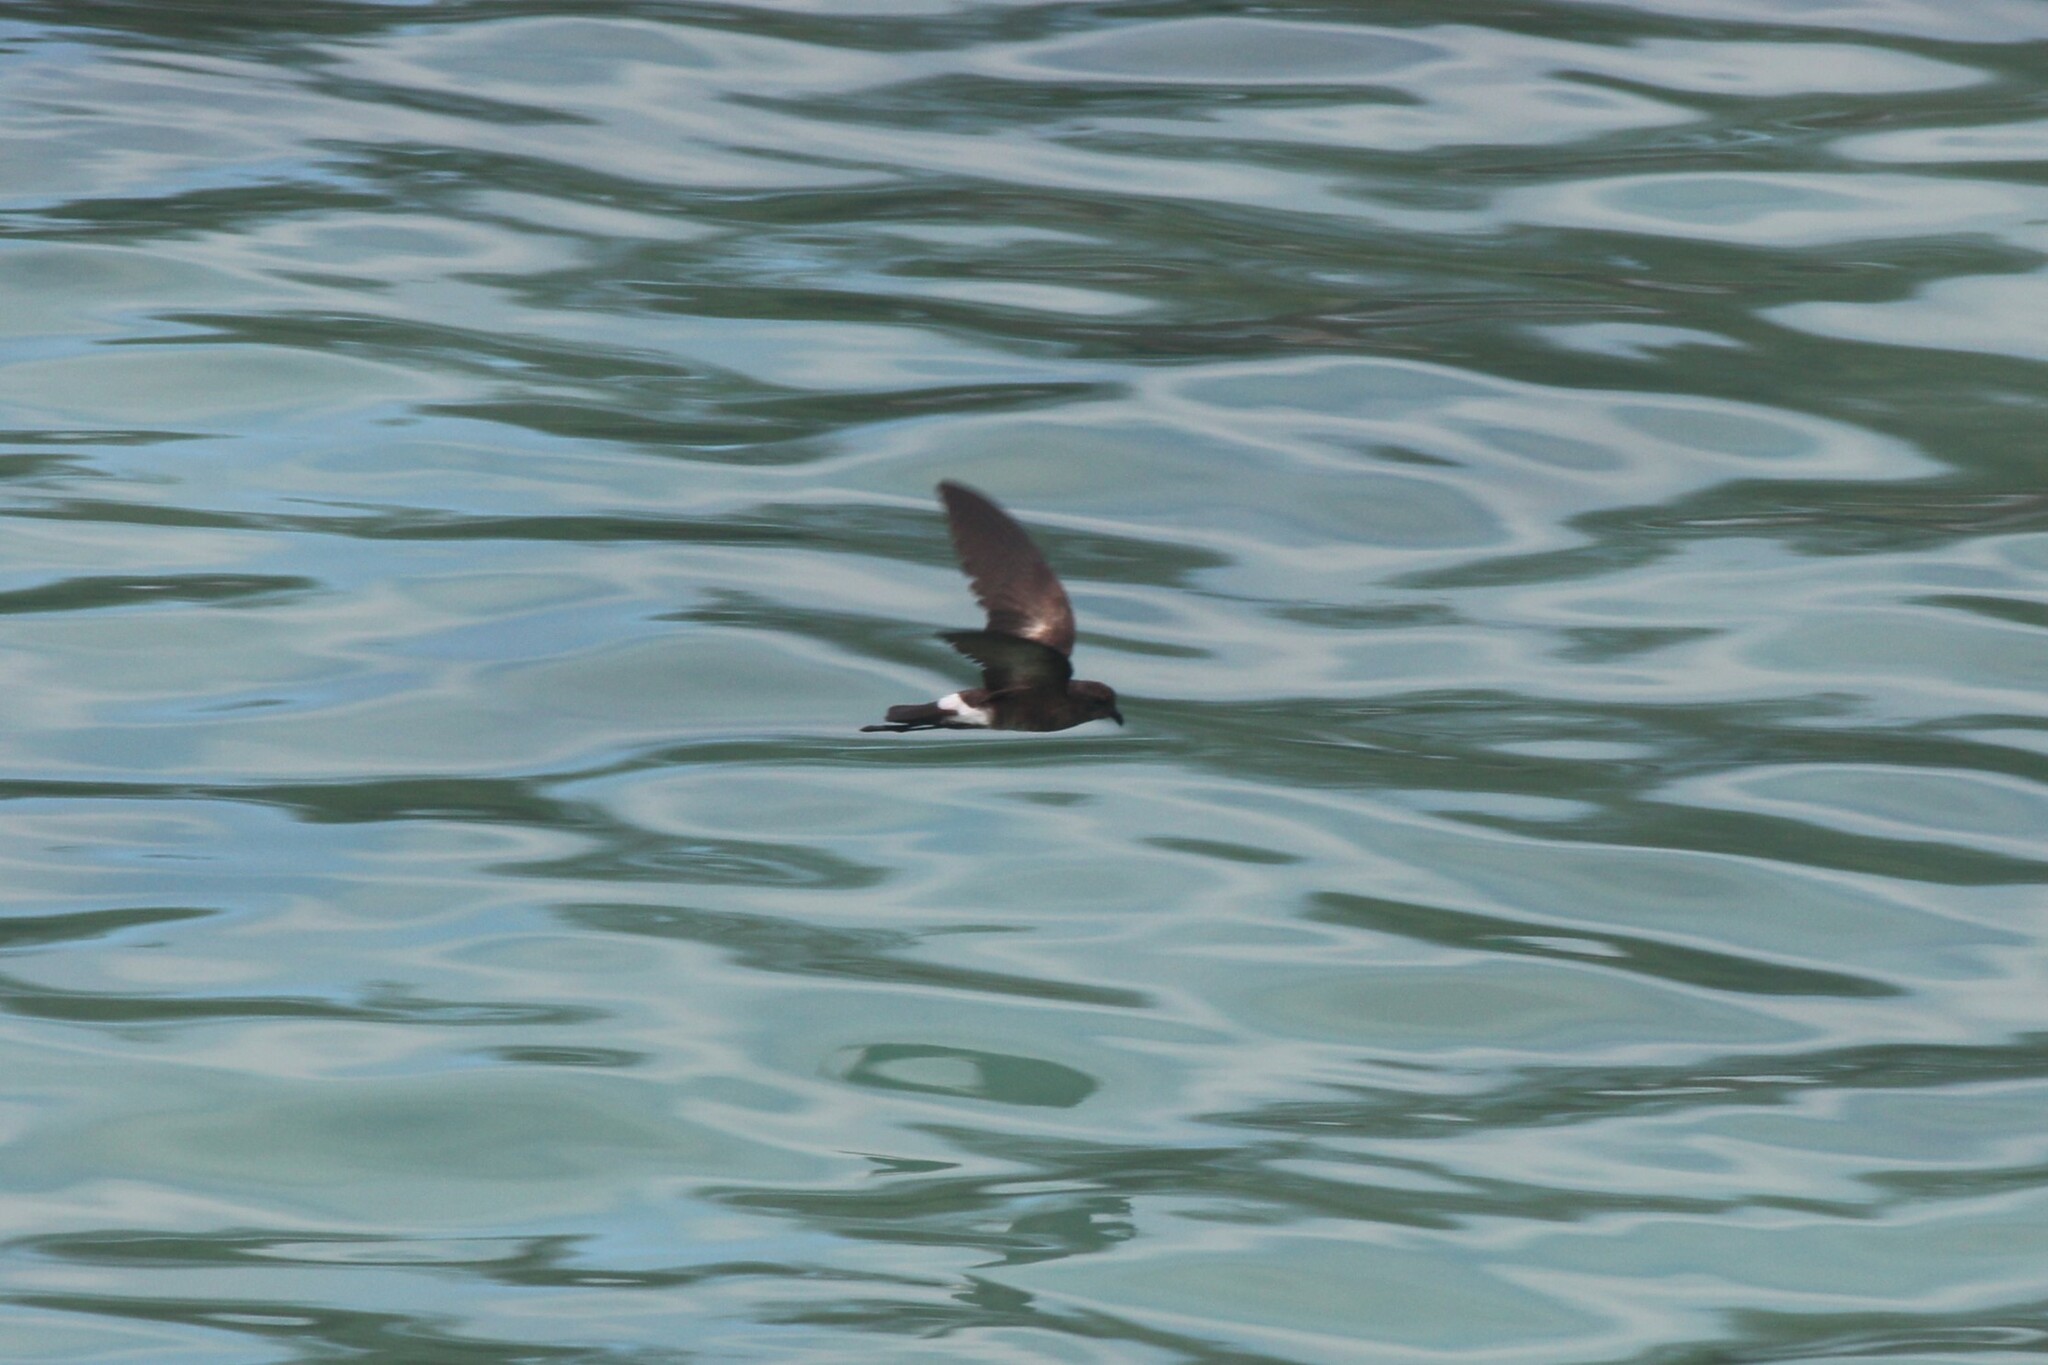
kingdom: Animalia
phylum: Chordata
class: Aves
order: Procellariiformes
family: Hydrobatidae
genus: Oceanites
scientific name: Oceanites gracilis
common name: Elliot's storm-petrel
